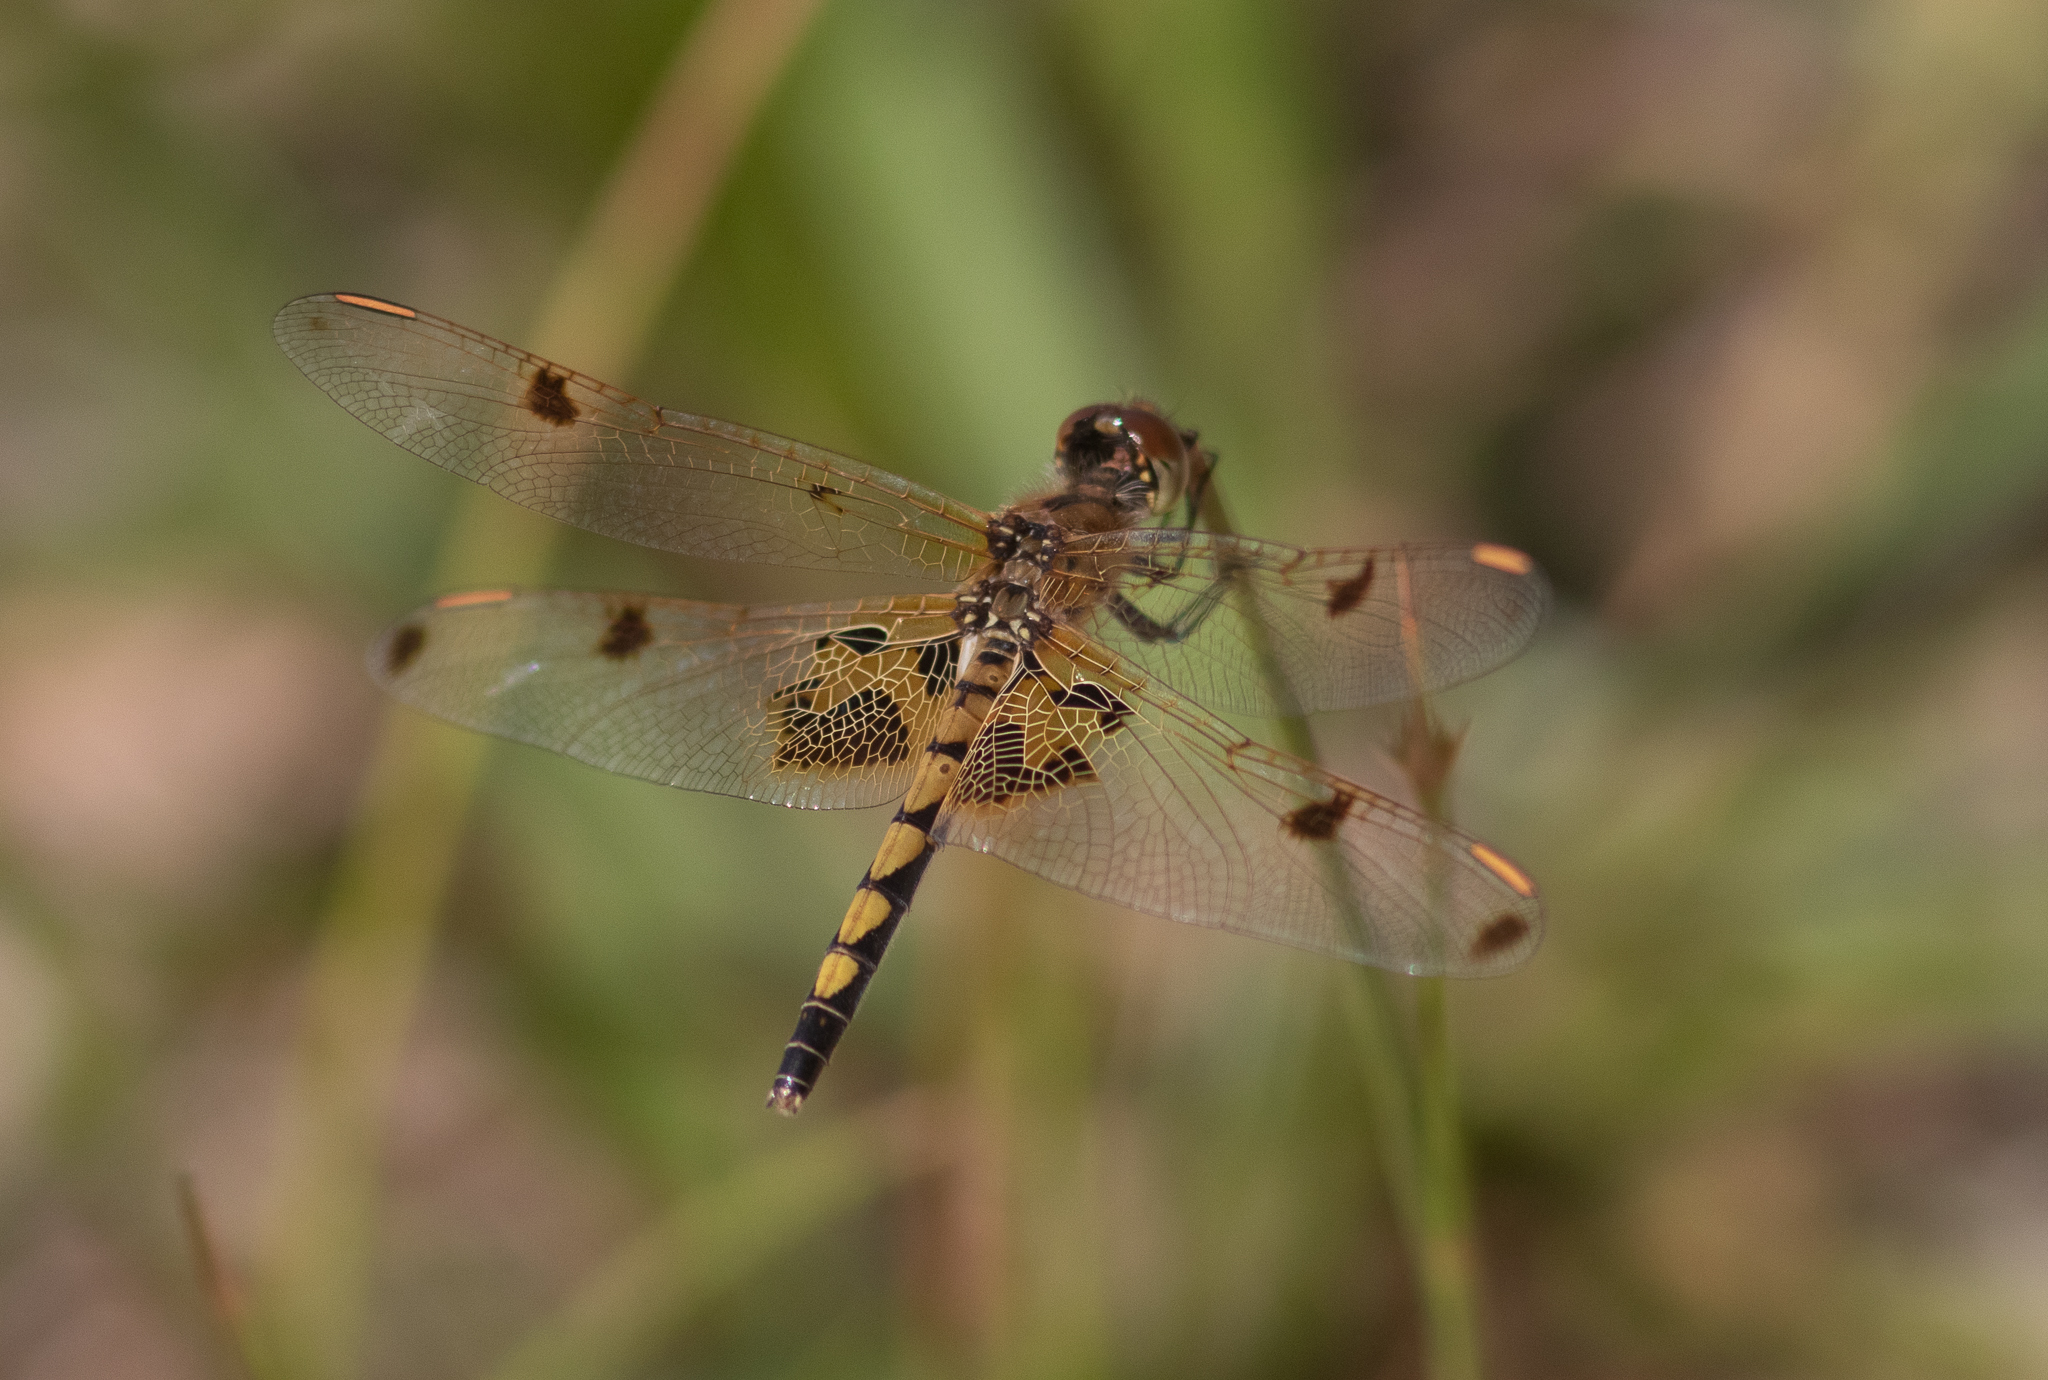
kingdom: Animalia
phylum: Arthropoda
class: Insecta
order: Odonata
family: Libellulidae
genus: Celithemis
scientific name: Celithemis elisa
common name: Calico pennant
